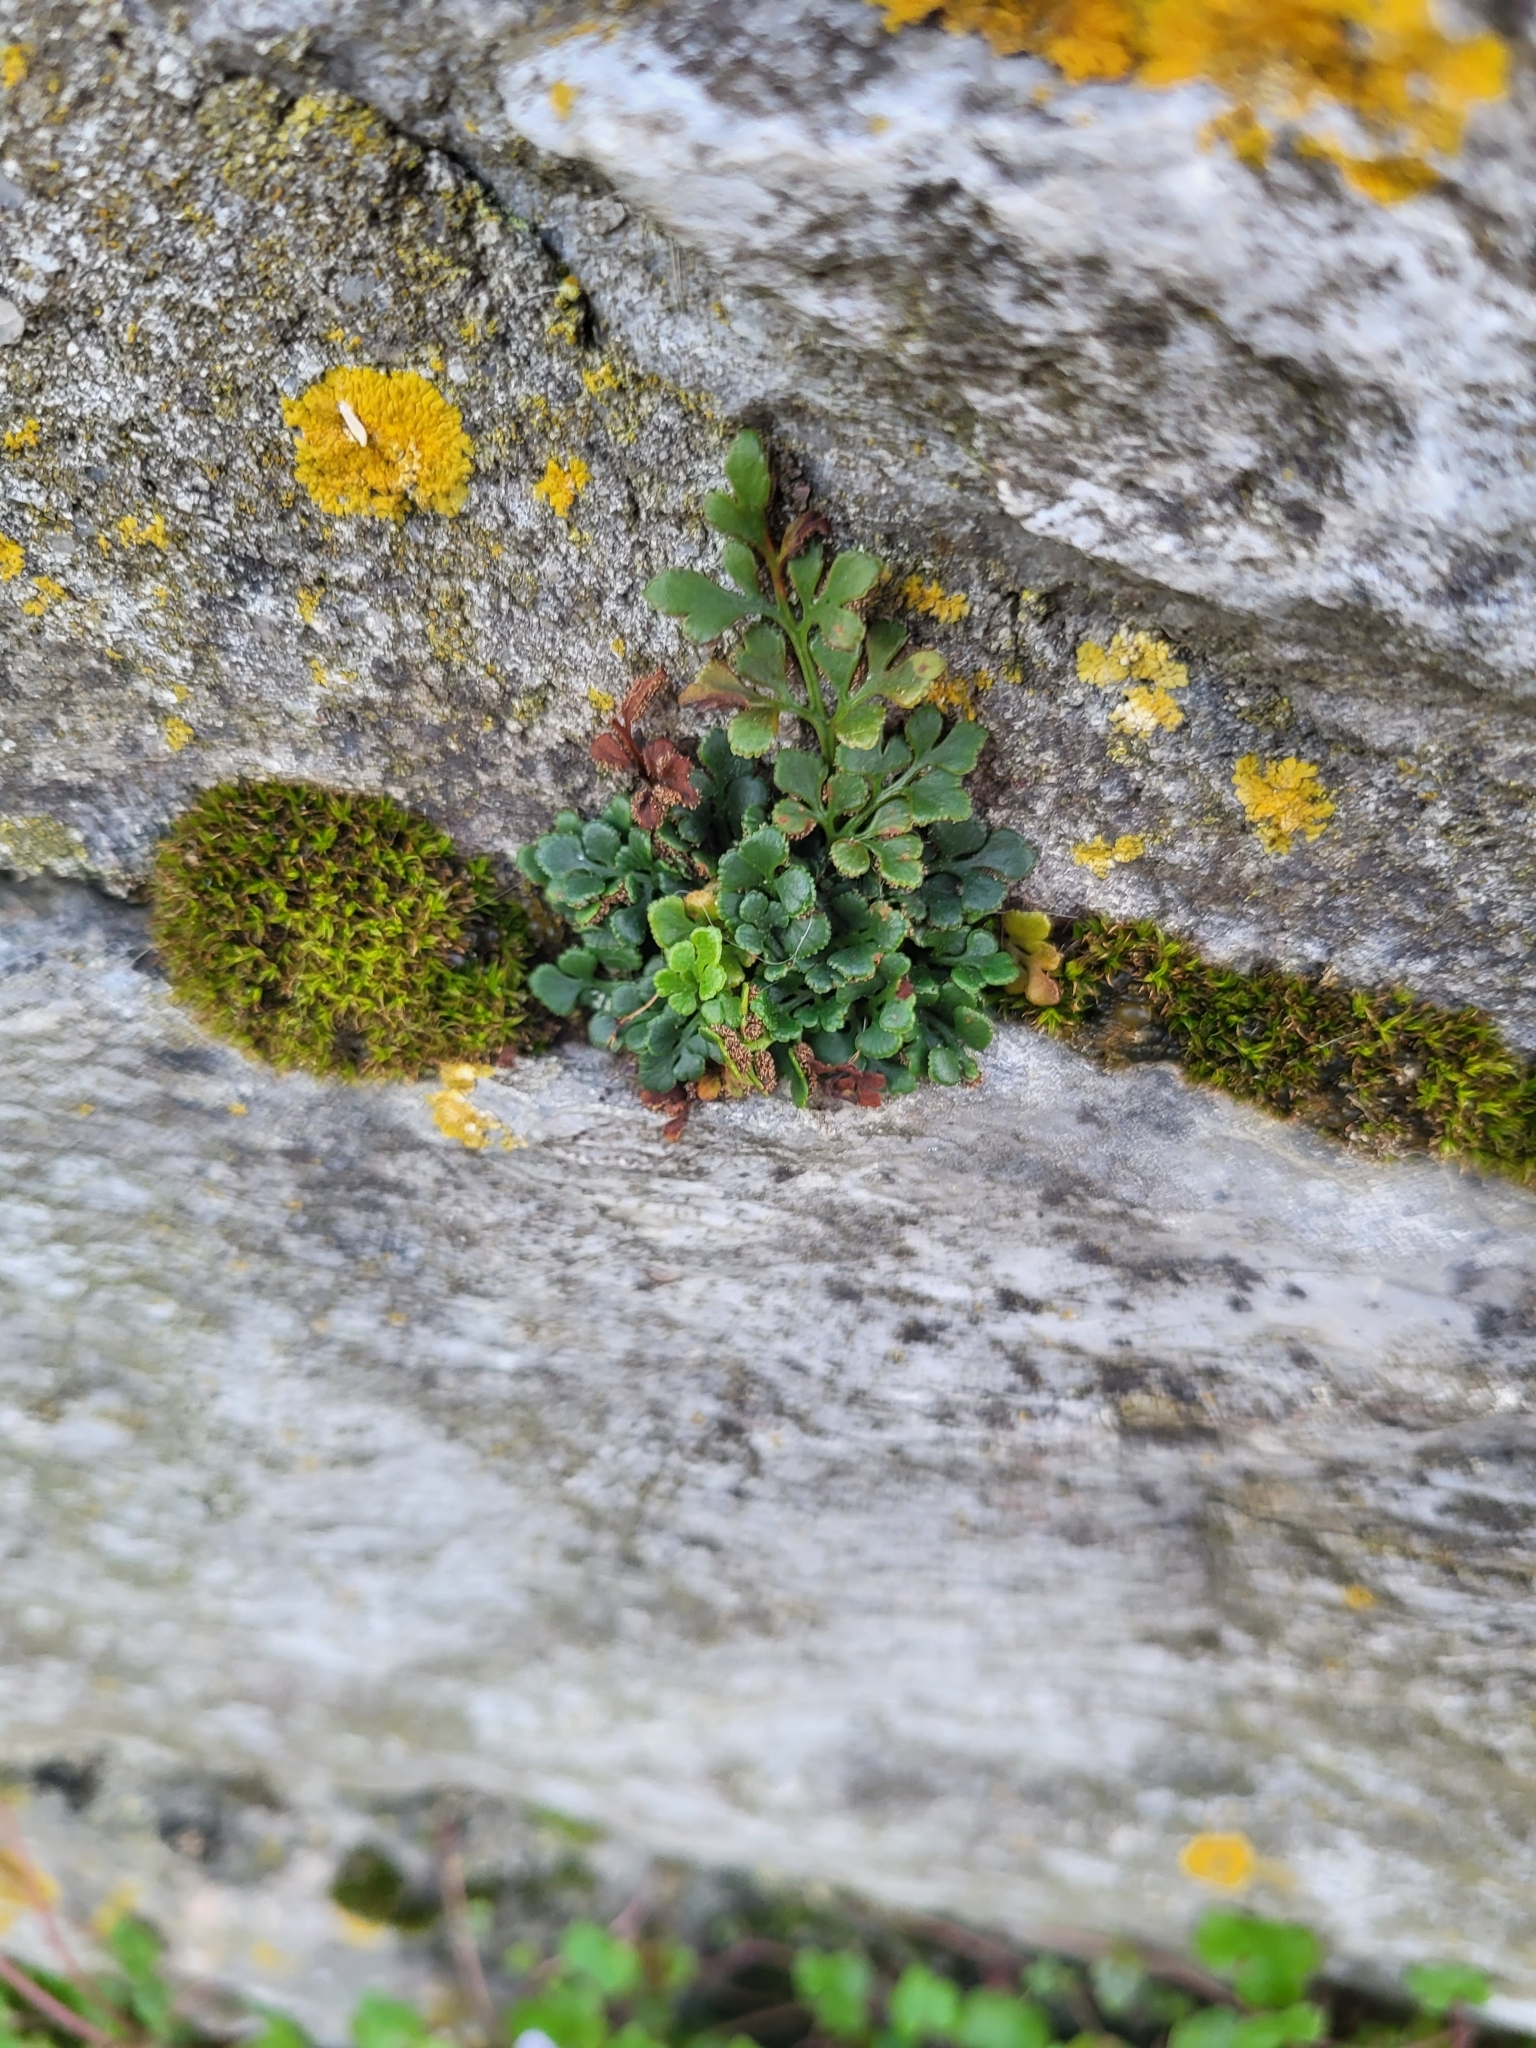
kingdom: Plantae
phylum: Tracheophyta
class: Polypodiopsida
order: Polypodiales
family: Aspleniaceae
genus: Asplenium
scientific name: Asplenium ruta-muraria
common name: Wall-rue
